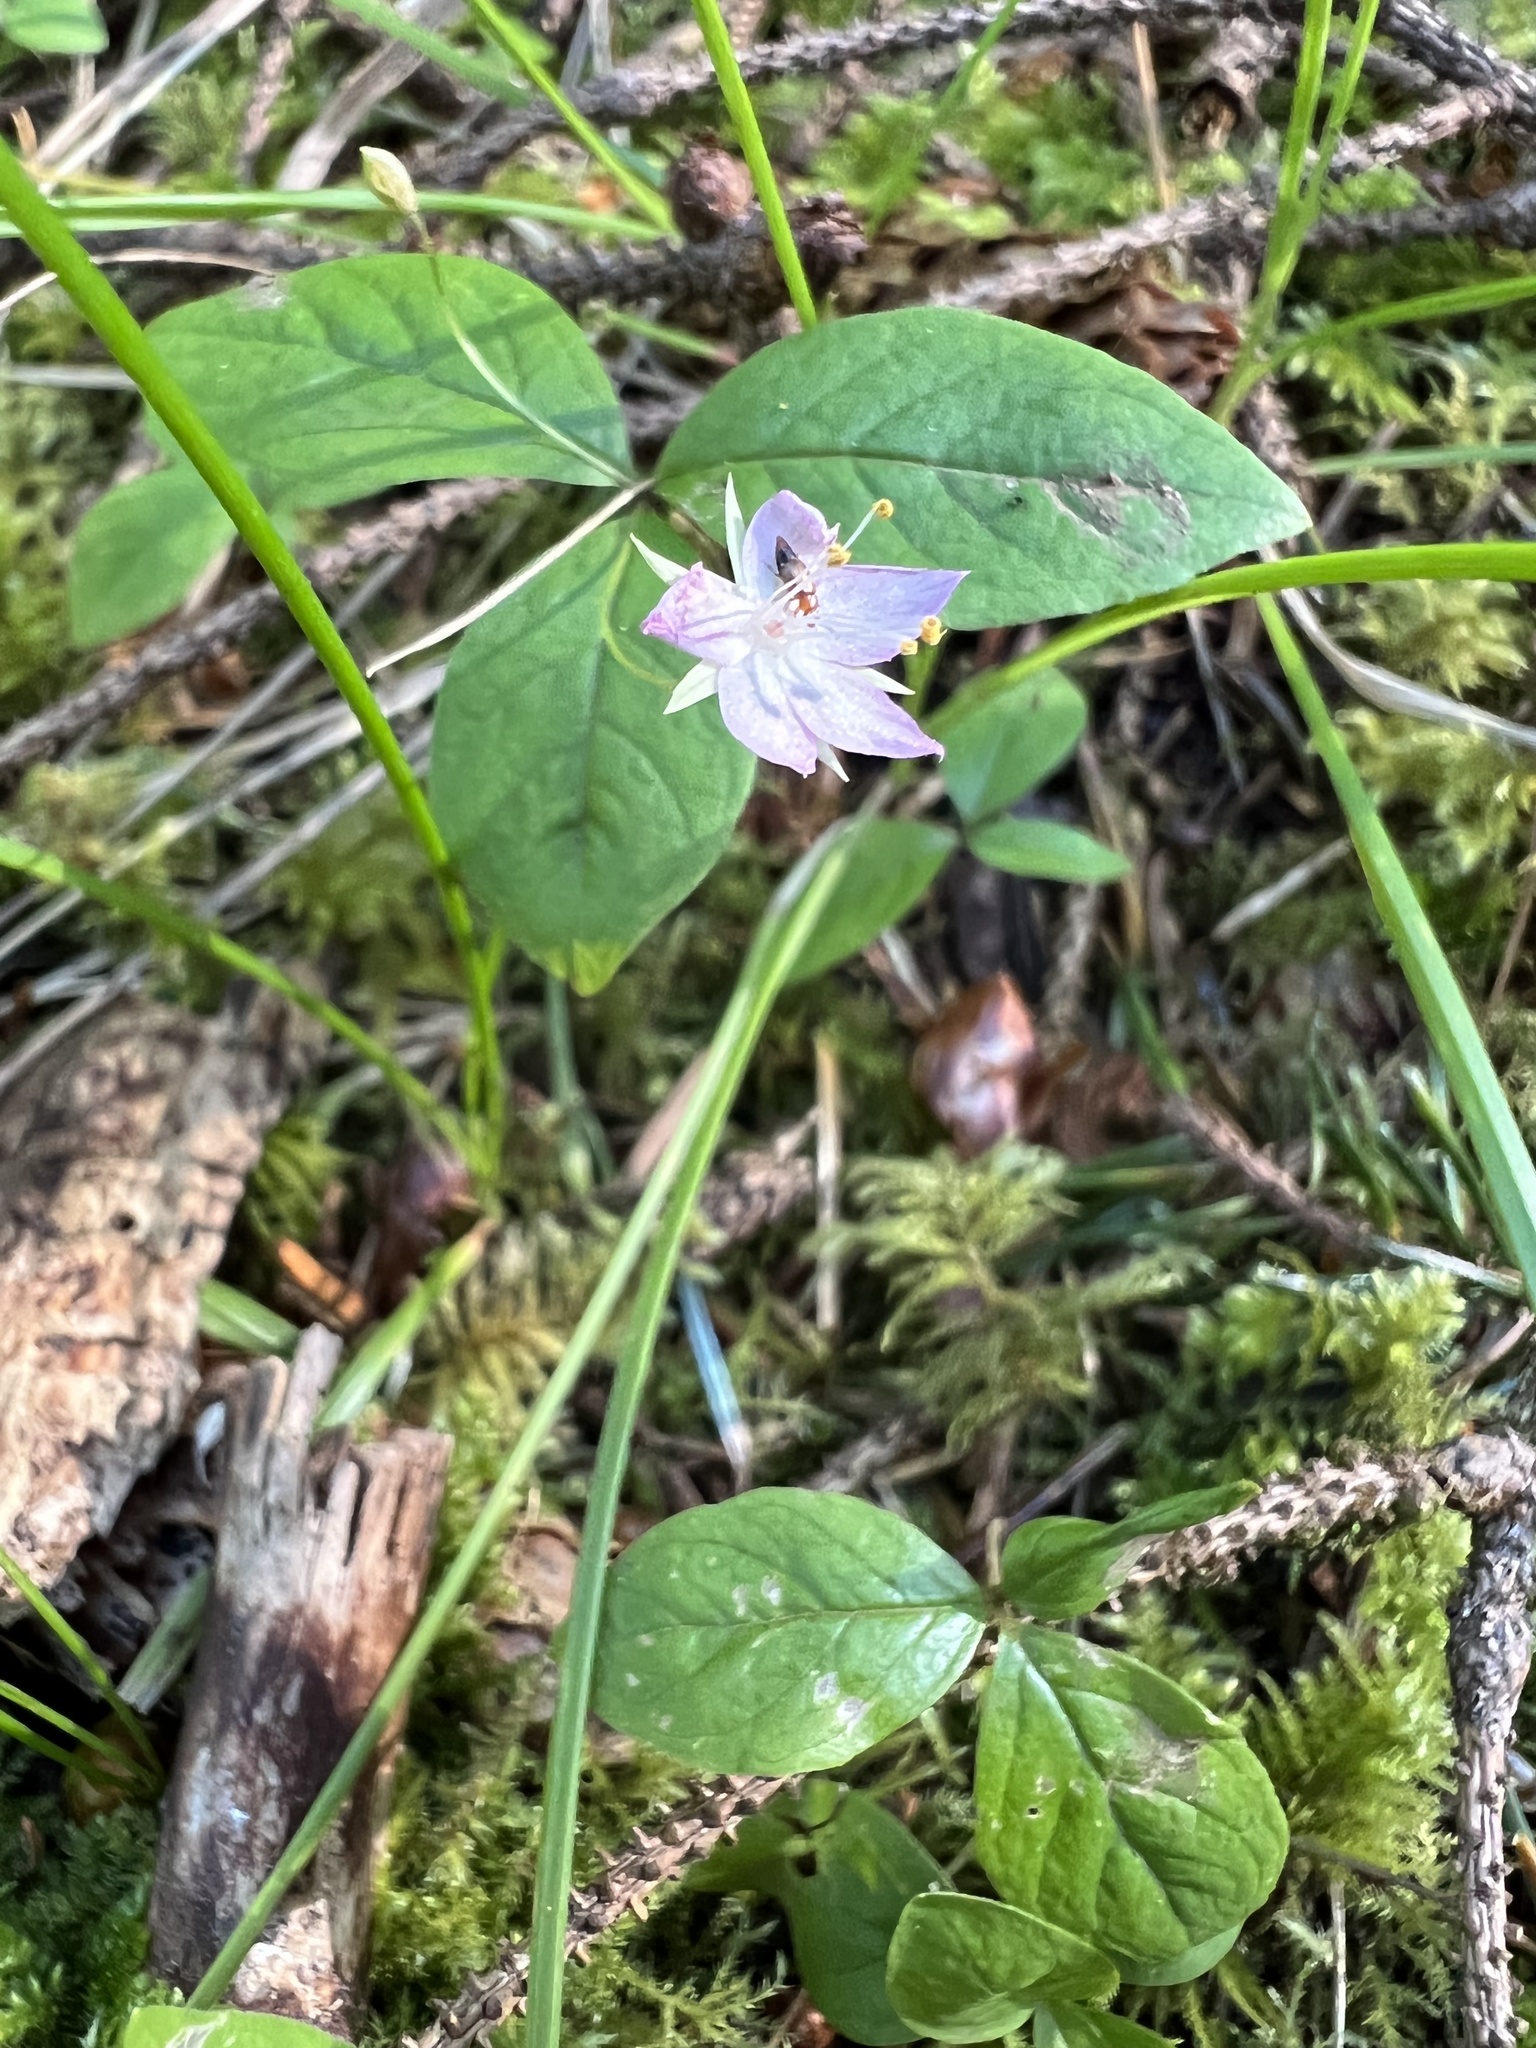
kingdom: Plantae
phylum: Tracheophyta
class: Magnoliopsida
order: Ericales
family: Primulaceae
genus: Lysimachia
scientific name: Lysimachia latifolia
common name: Pacific starflower
